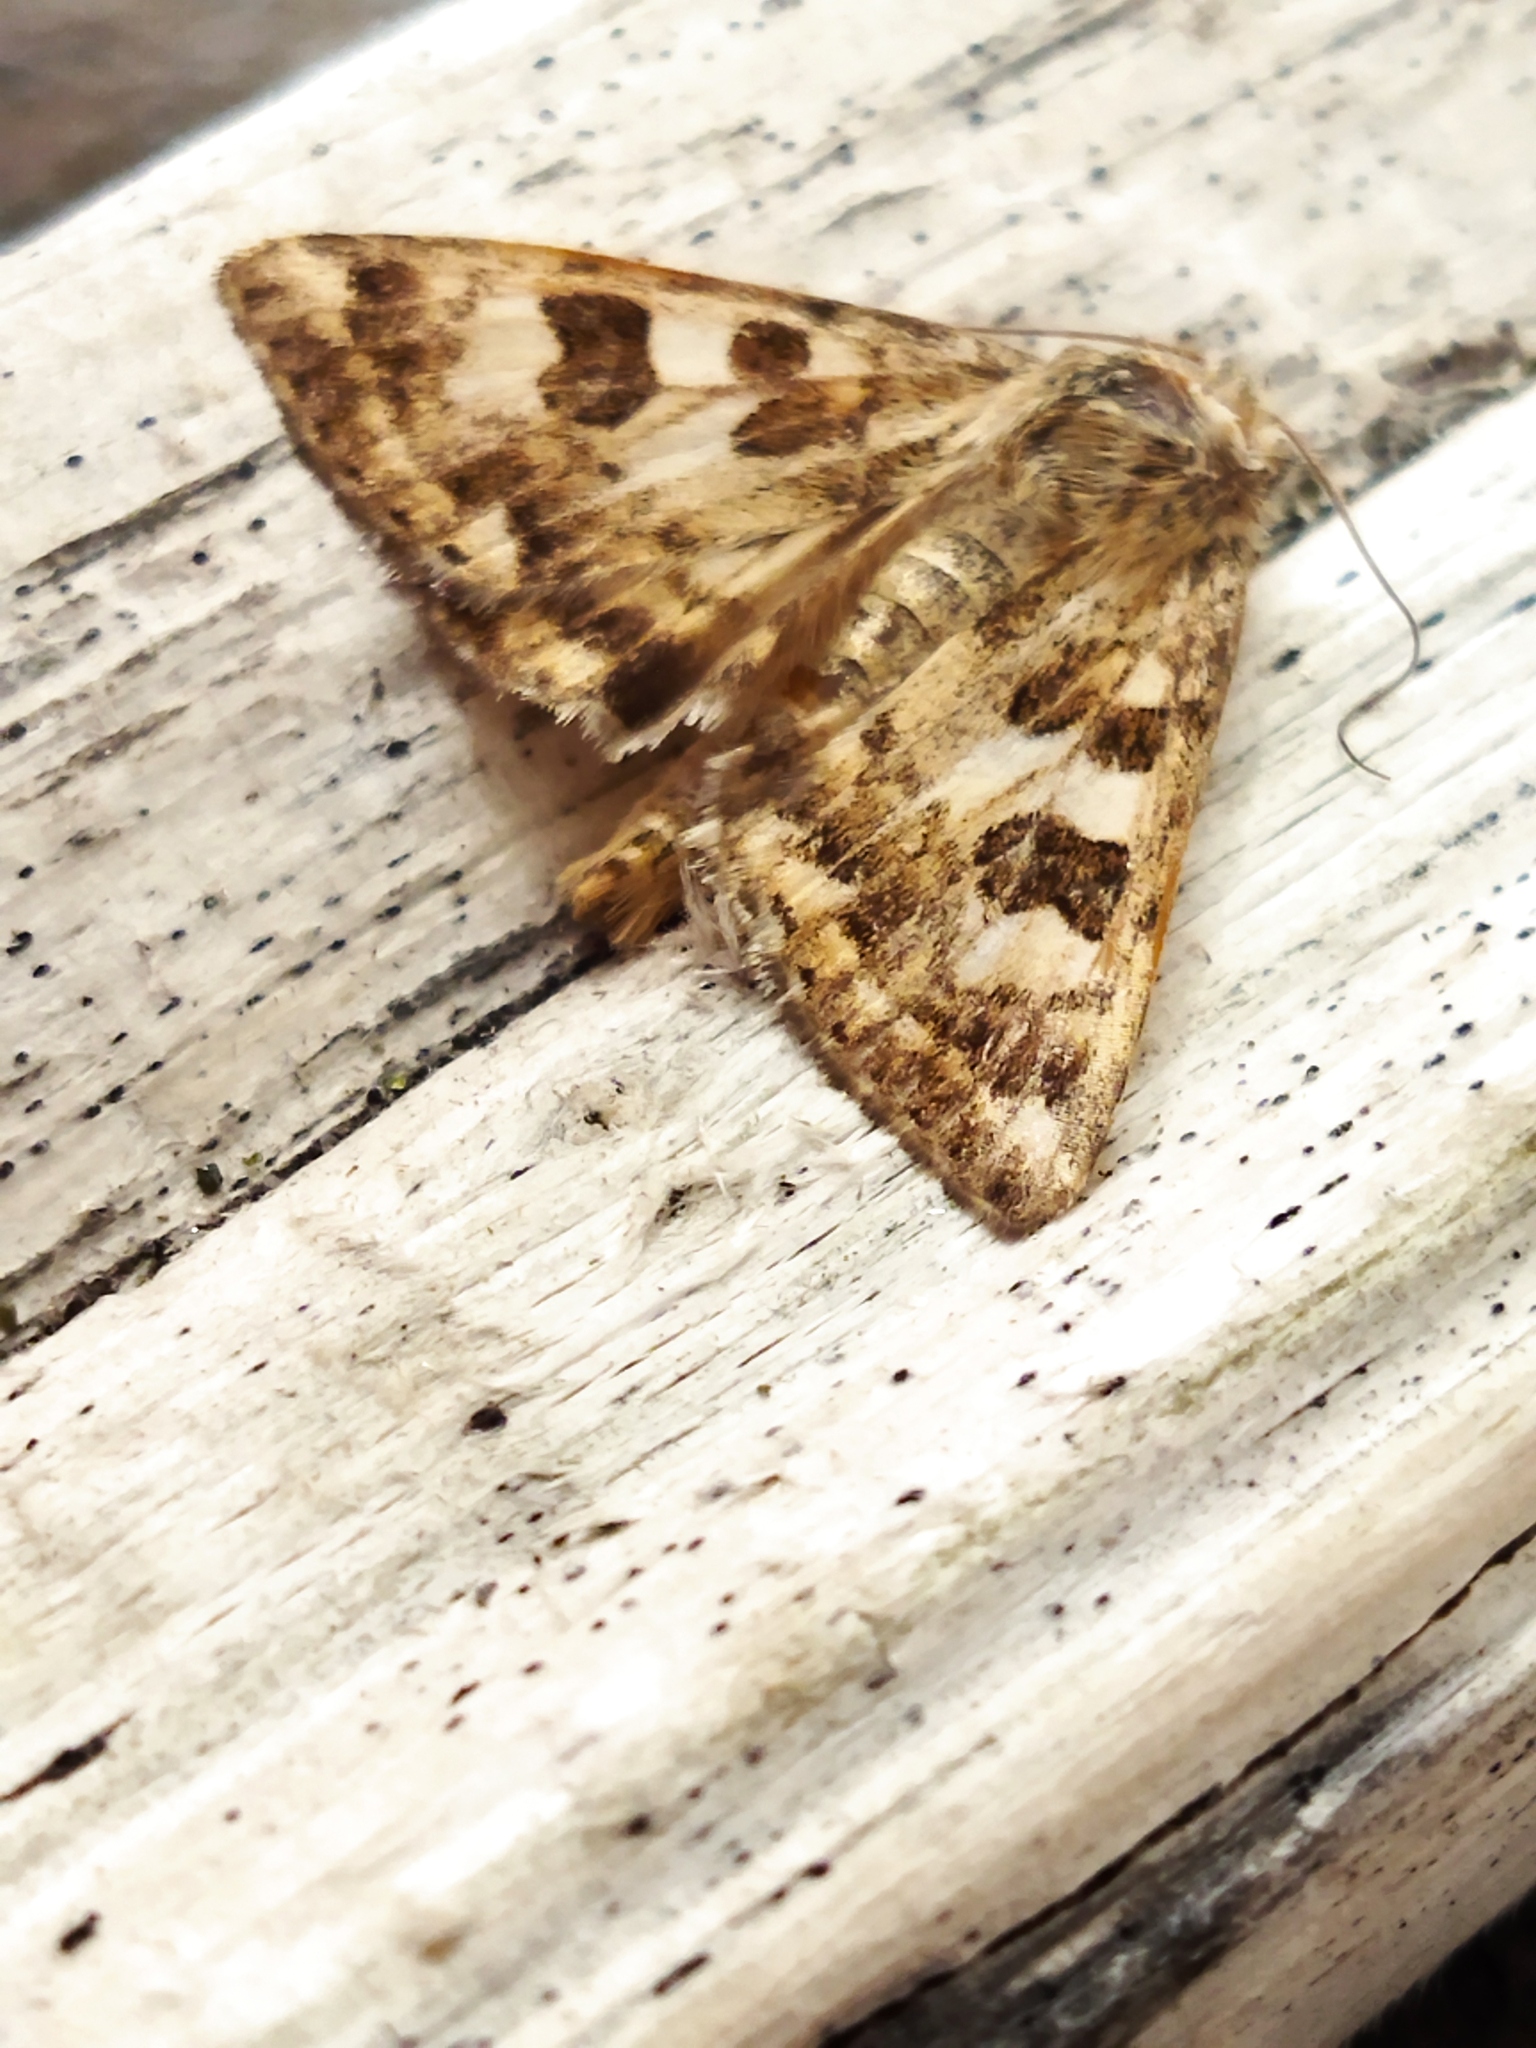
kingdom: Animalia
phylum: Arthropoda
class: Insecta
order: Lepidoptera
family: Noctuidae
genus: Protoschinia
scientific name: Protoschinia scutosa
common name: Spotted clover
